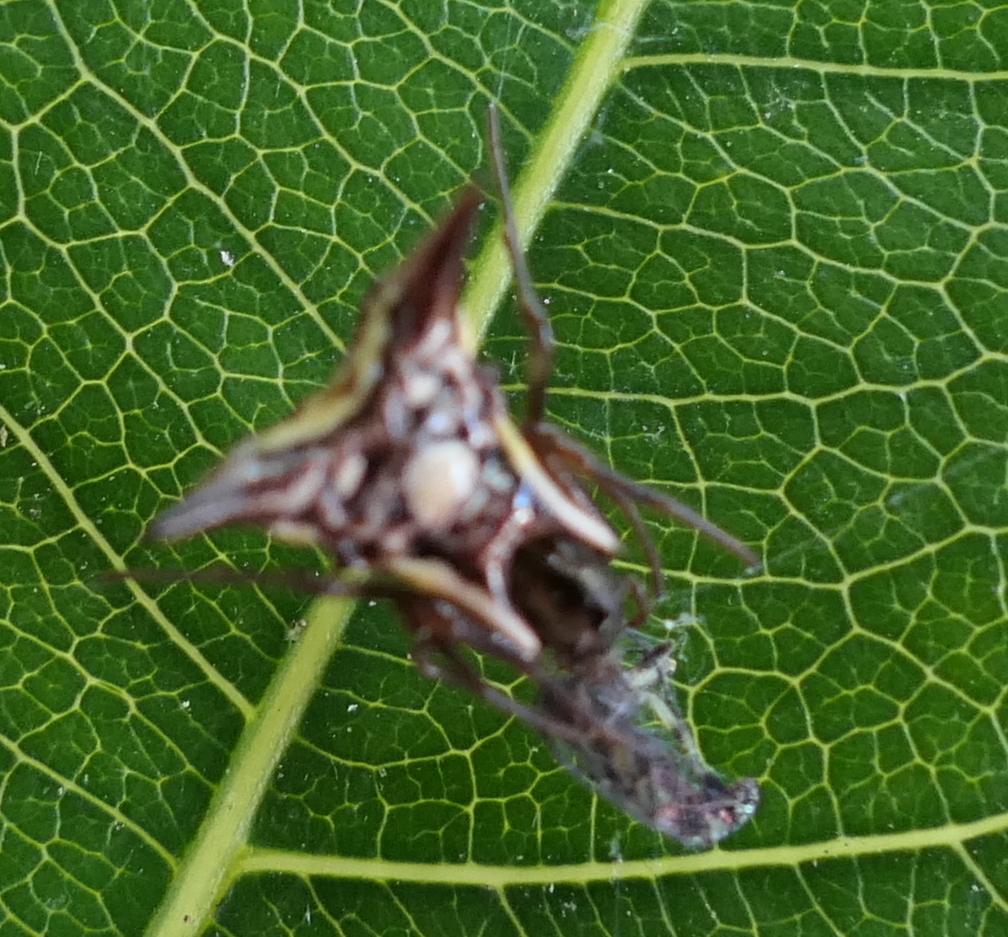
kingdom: Animalia
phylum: Arthropoda
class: Arachnida
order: Araneae
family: Araneidae
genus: Micrathena
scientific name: Micrathena evansi
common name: Orb weavers
